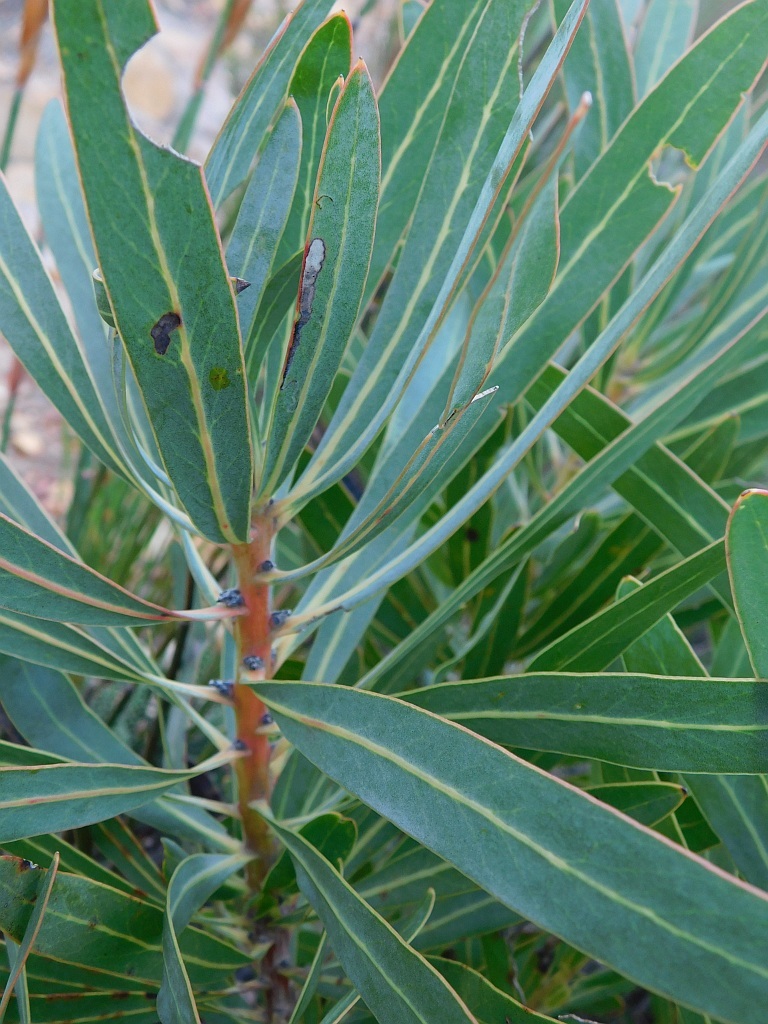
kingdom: Plantae
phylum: Tracheophyta
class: Magnoliopsida
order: Proteales
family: Proteaceae
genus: Protea
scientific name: Protea neriifolia
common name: Blue sugarbush
